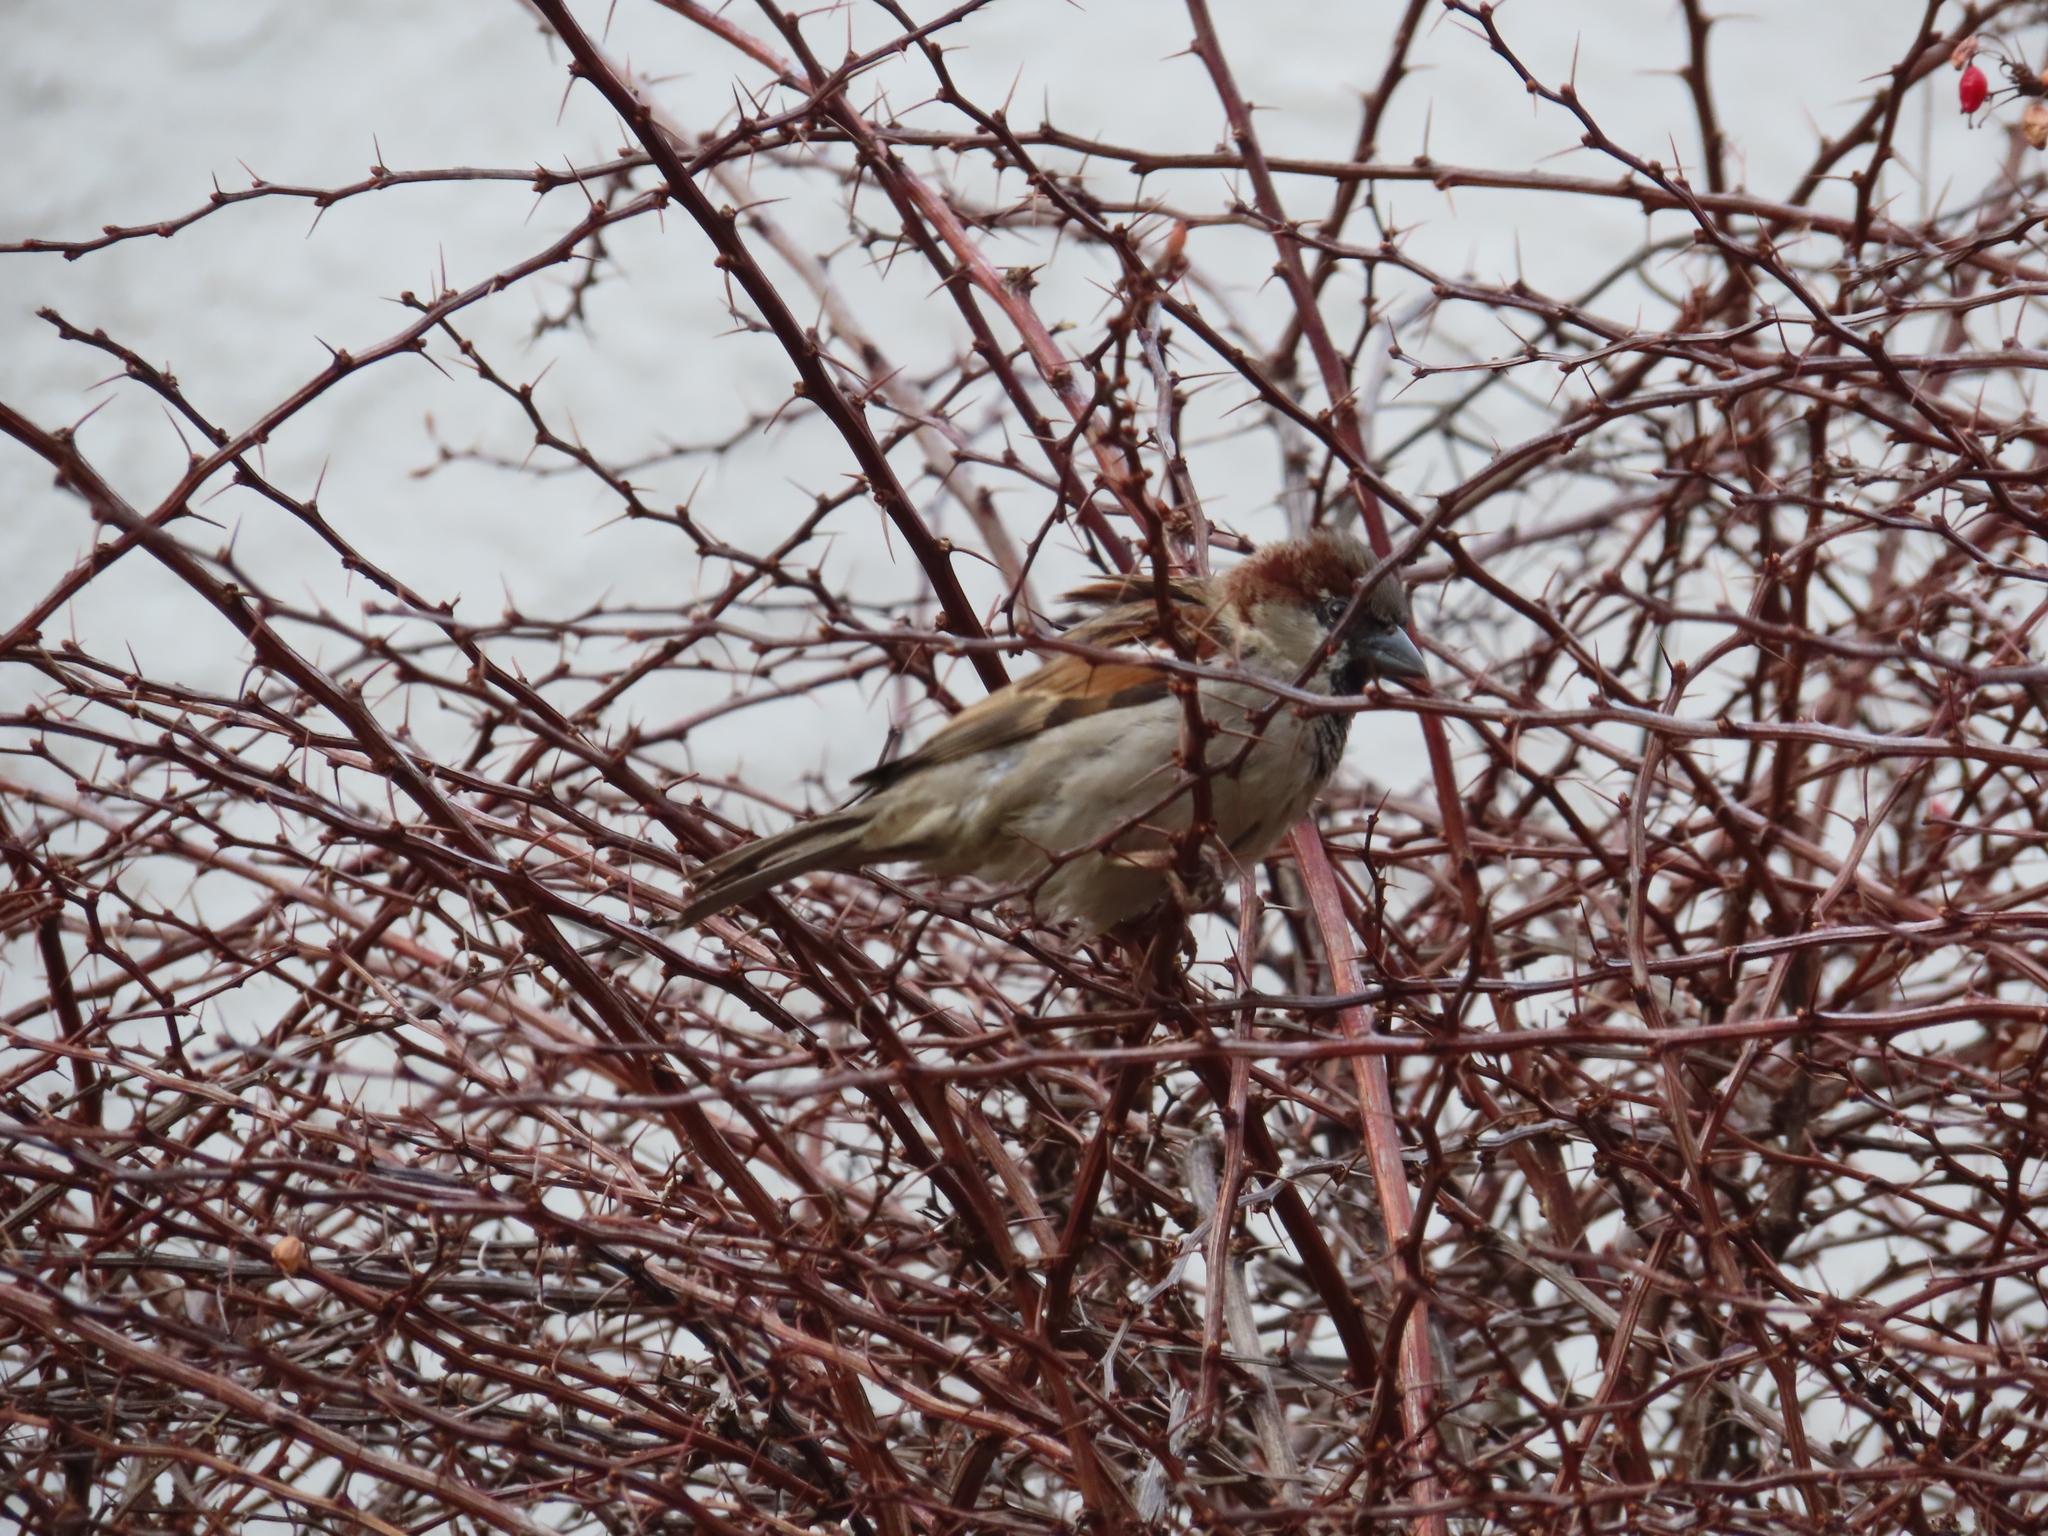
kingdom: Animalia
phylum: Chordata
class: Aves
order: Passeriformes
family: Passeridae
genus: Passer
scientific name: Passer domesticus
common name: House sparrow
